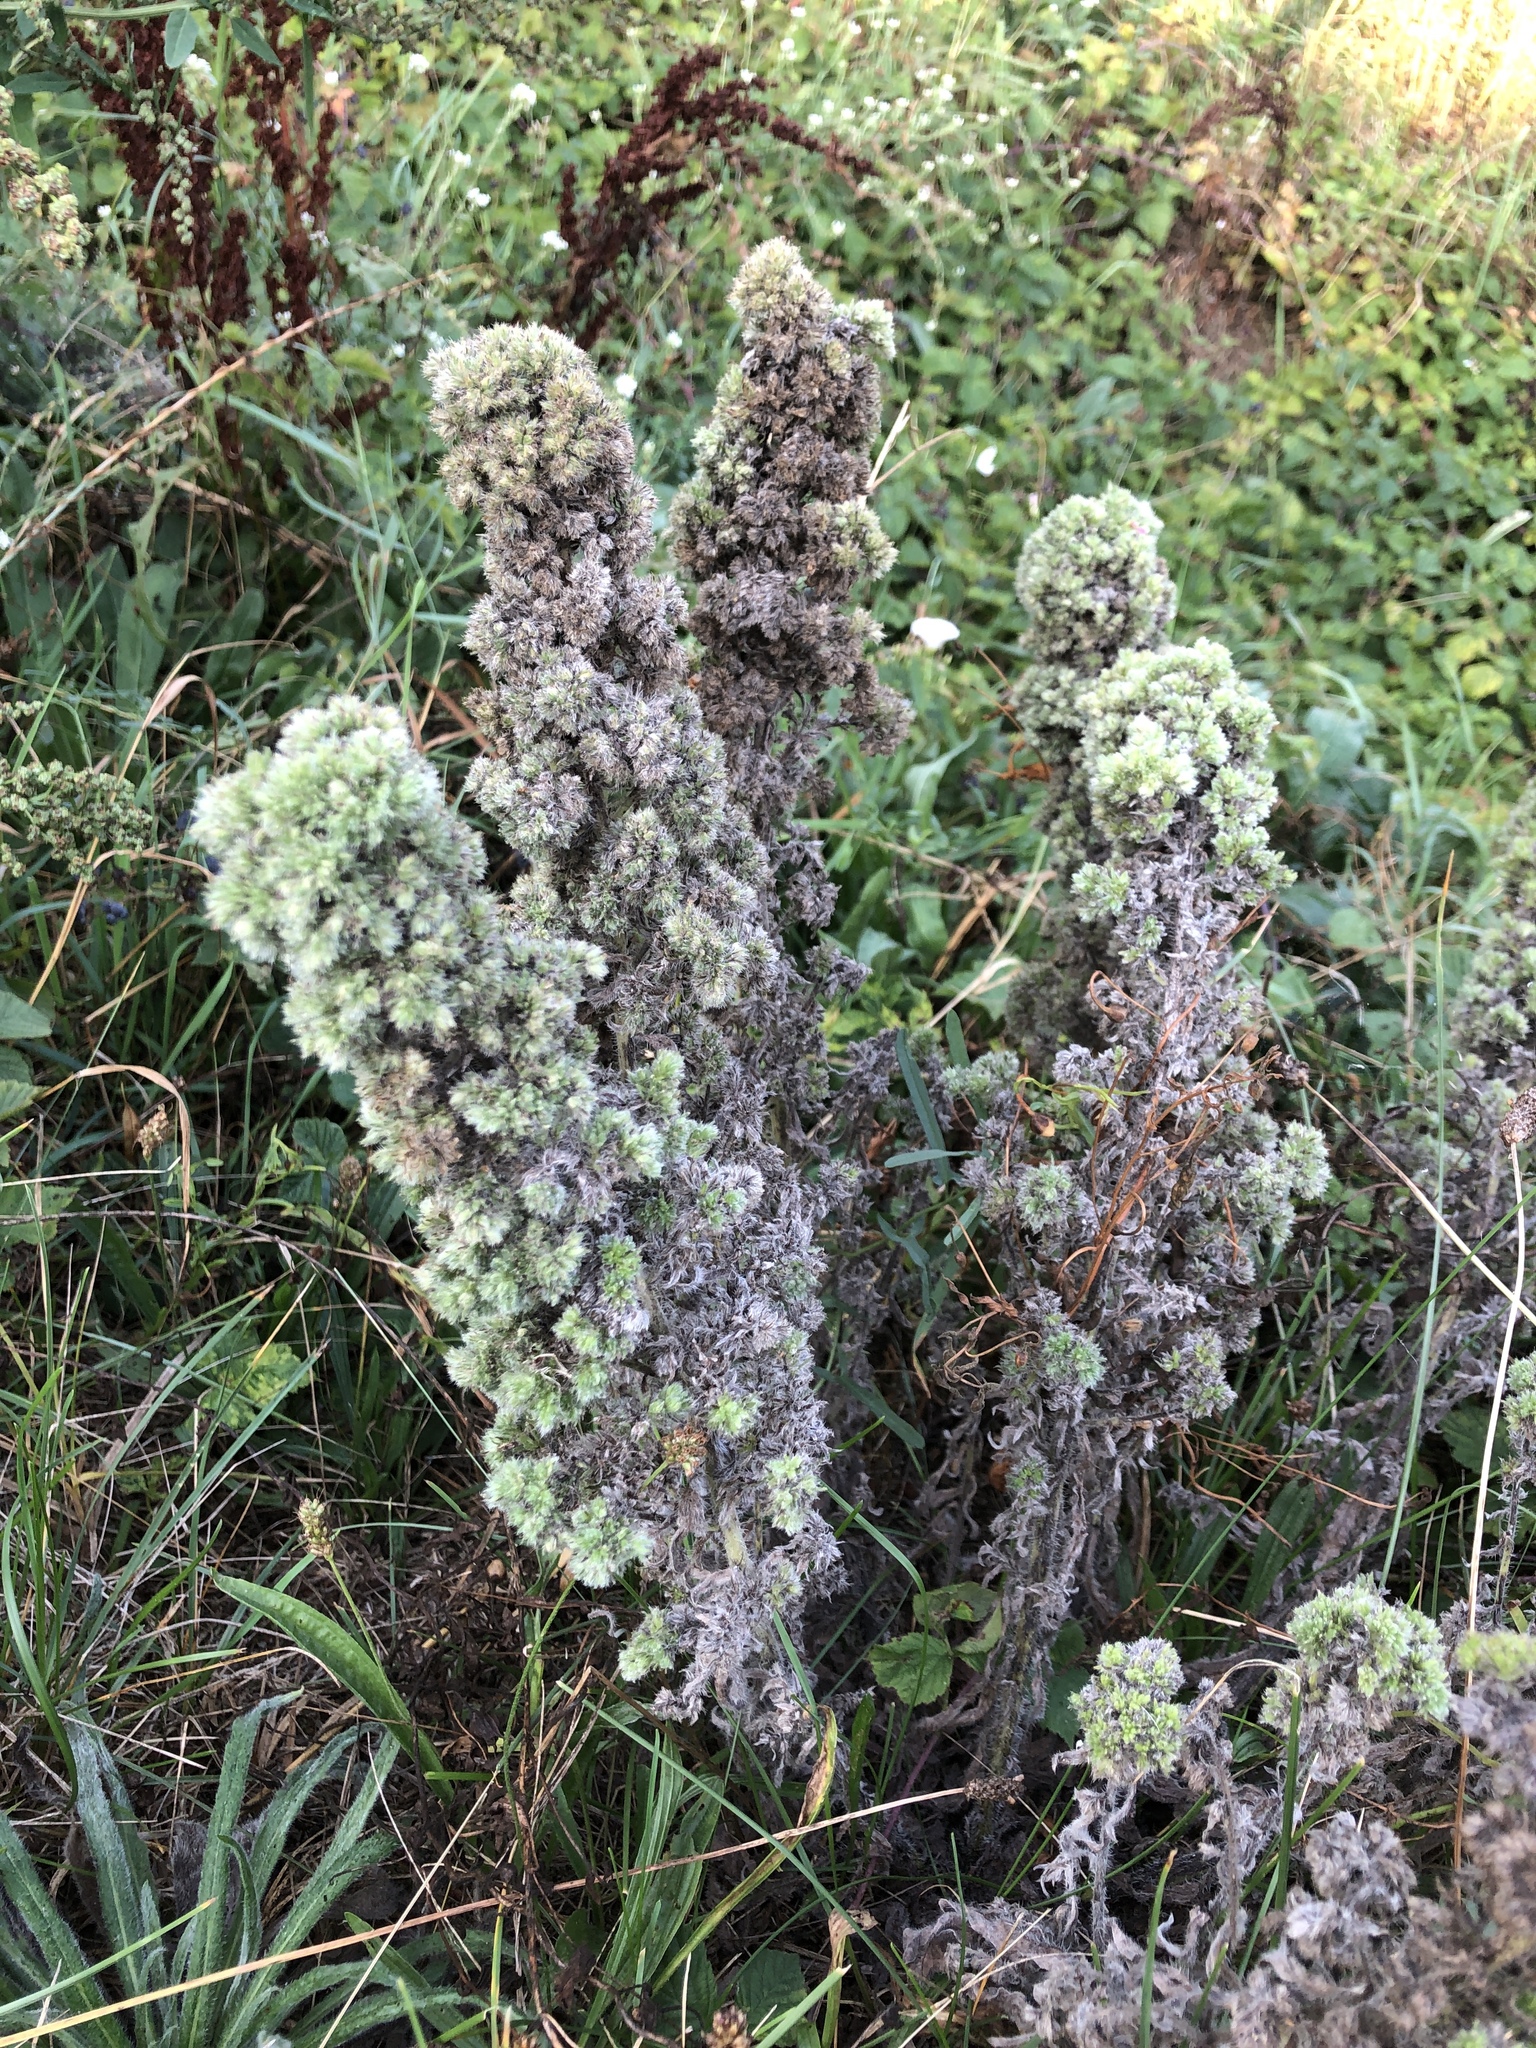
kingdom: Animalia
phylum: Arthropoda
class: Arachnida
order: Trombidiformes
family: Eriophyidae
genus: Aceria
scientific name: Aceria echii
